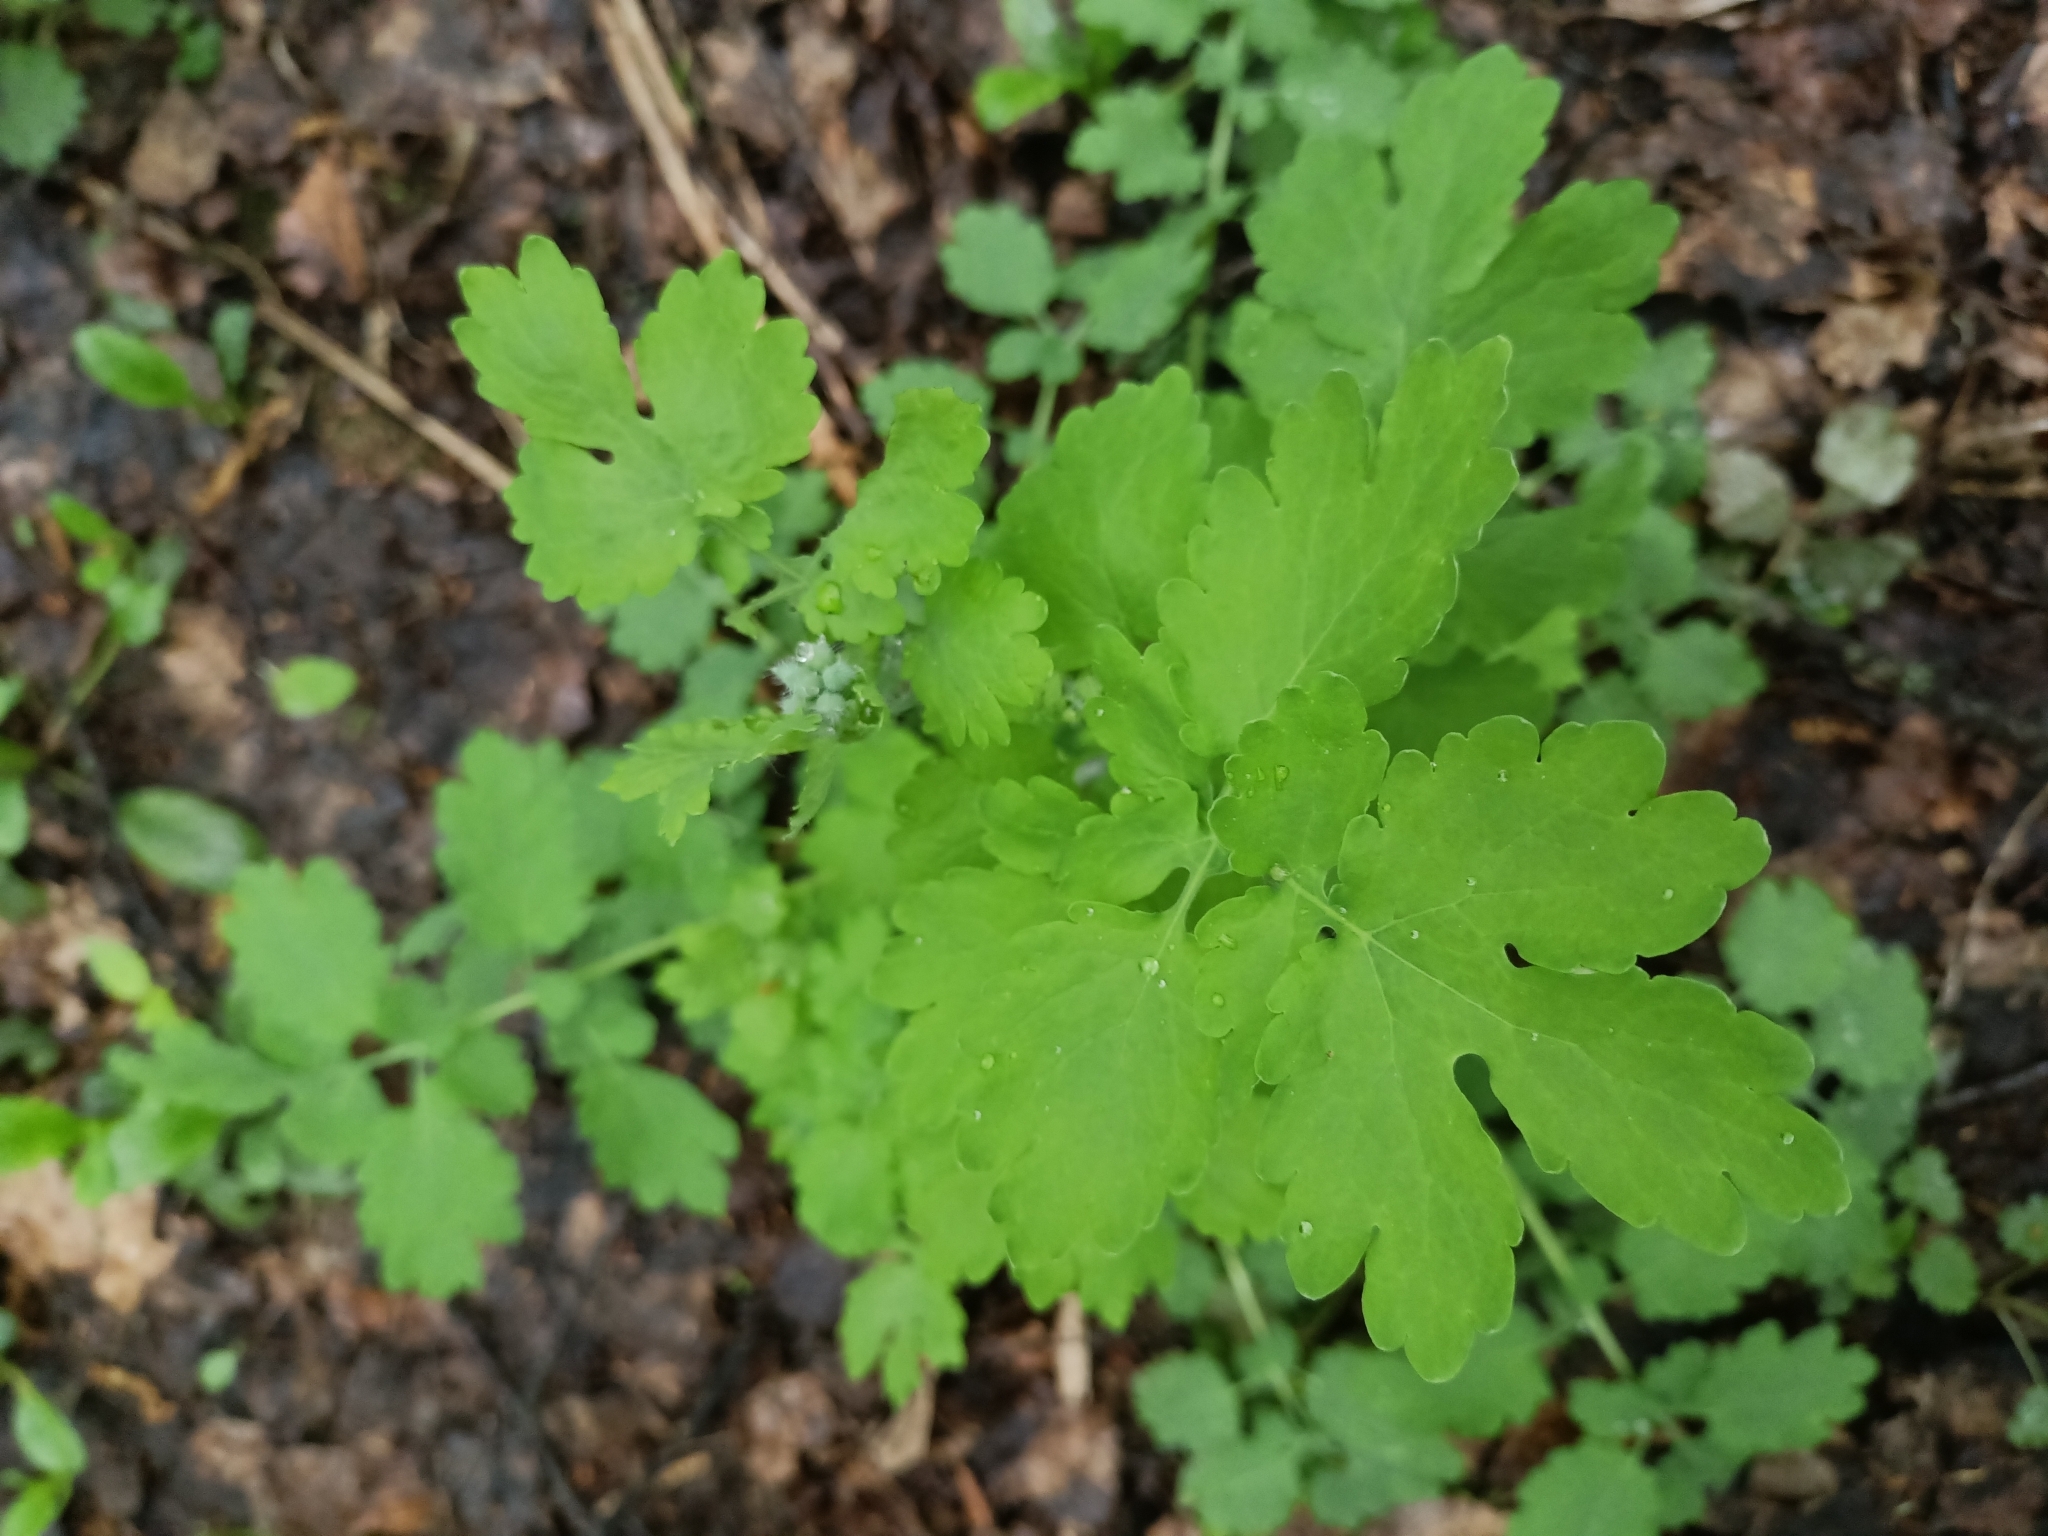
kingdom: Plantae
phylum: Tracheophyta
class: Magnoliopsida
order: Ranunculales
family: Papaveraceae
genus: Chelidonium
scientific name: Chelidonium majus
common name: Greater celandine
